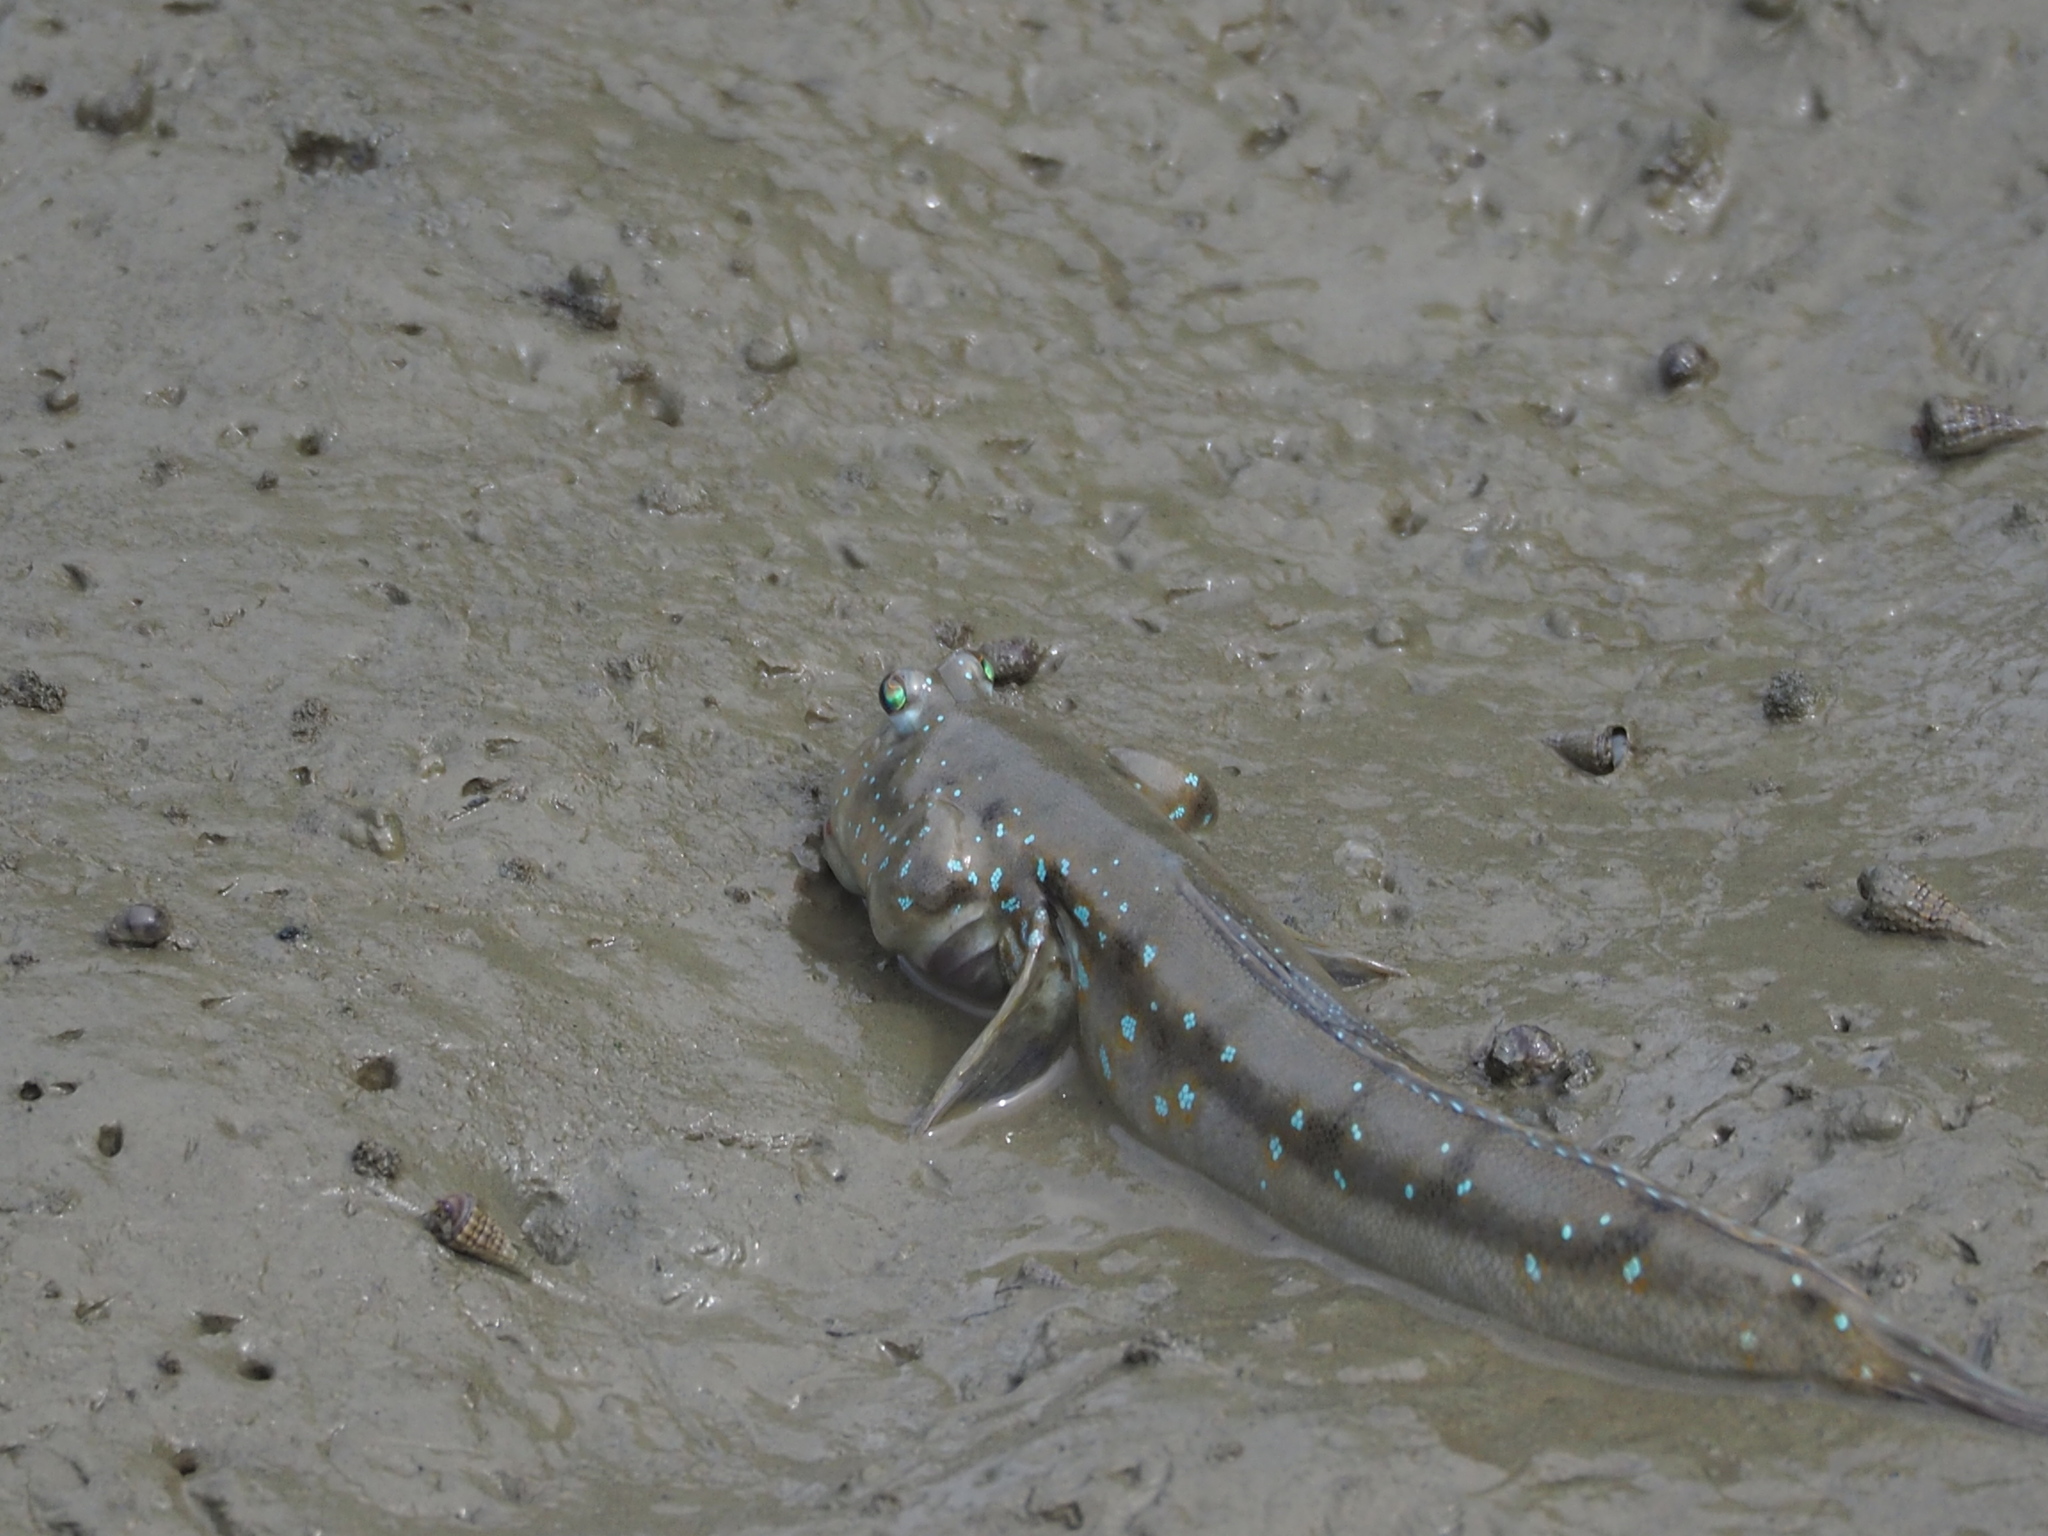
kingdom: Animalia
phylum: Chordata
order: Perciformes
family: Gobiidae
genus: Boleophthalmus
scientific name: Boleophthalmus pectinirostris
